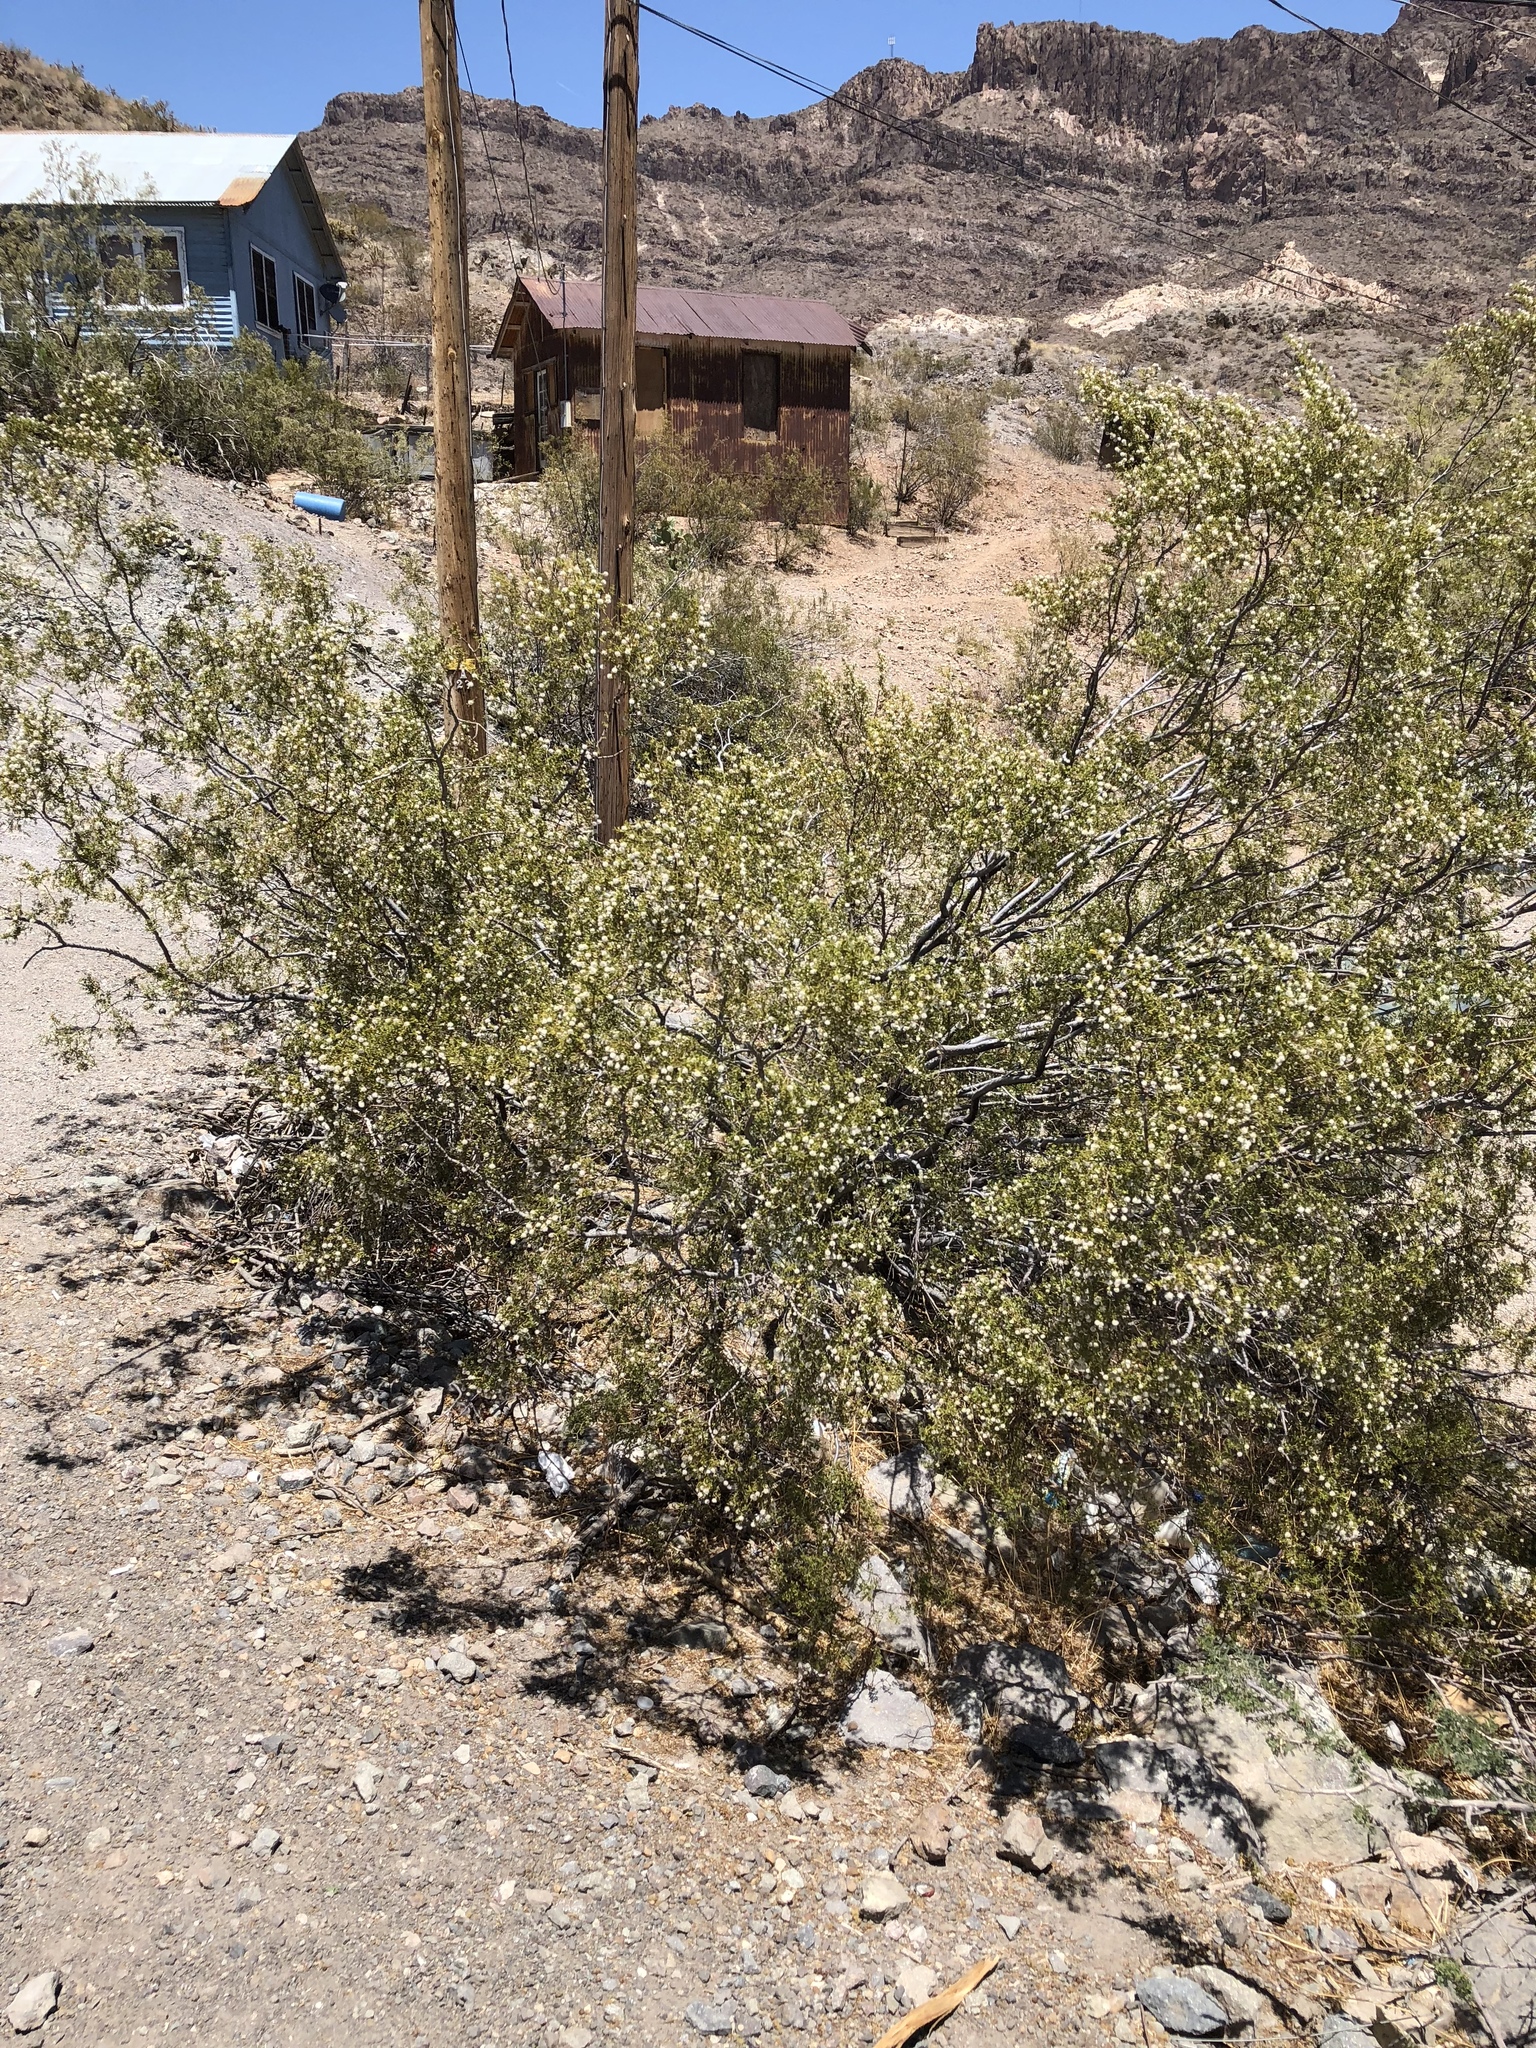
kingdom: Plantae
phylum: Tracheophyta
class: Magnoliopsida
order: Zygophyllales
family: Zygophyllaceae
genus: Larrea
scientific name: Larrea tridentata
